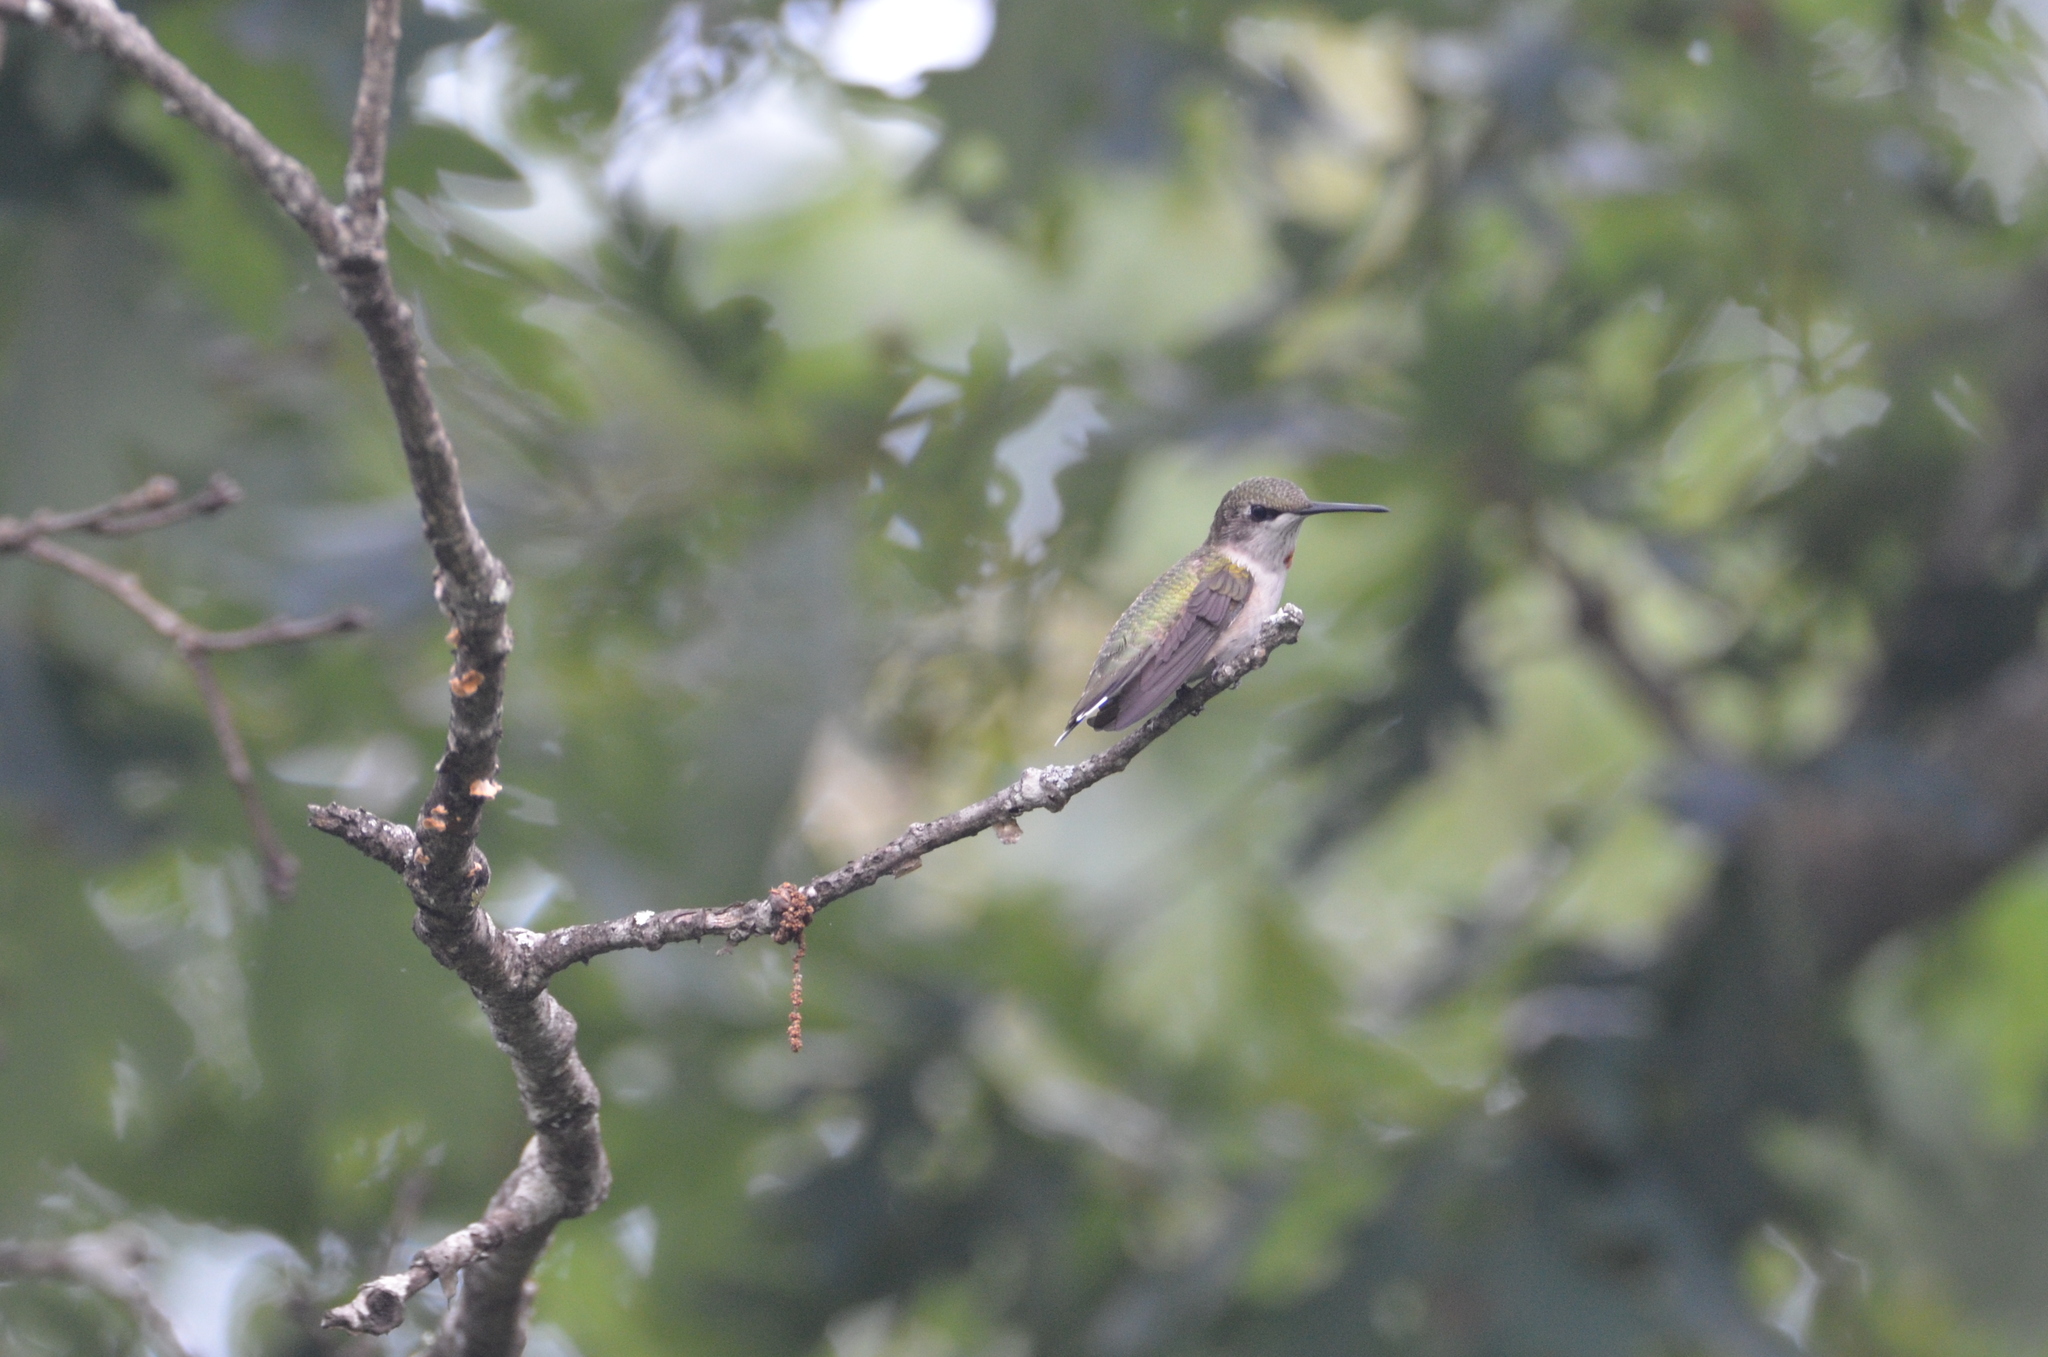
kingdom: Animalia
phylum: Chordata
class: Aves
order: Apodiformes
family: Trochilidae
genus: Archilochus
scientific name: Archilochus colubris
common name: Ruby-throated hummingbird
